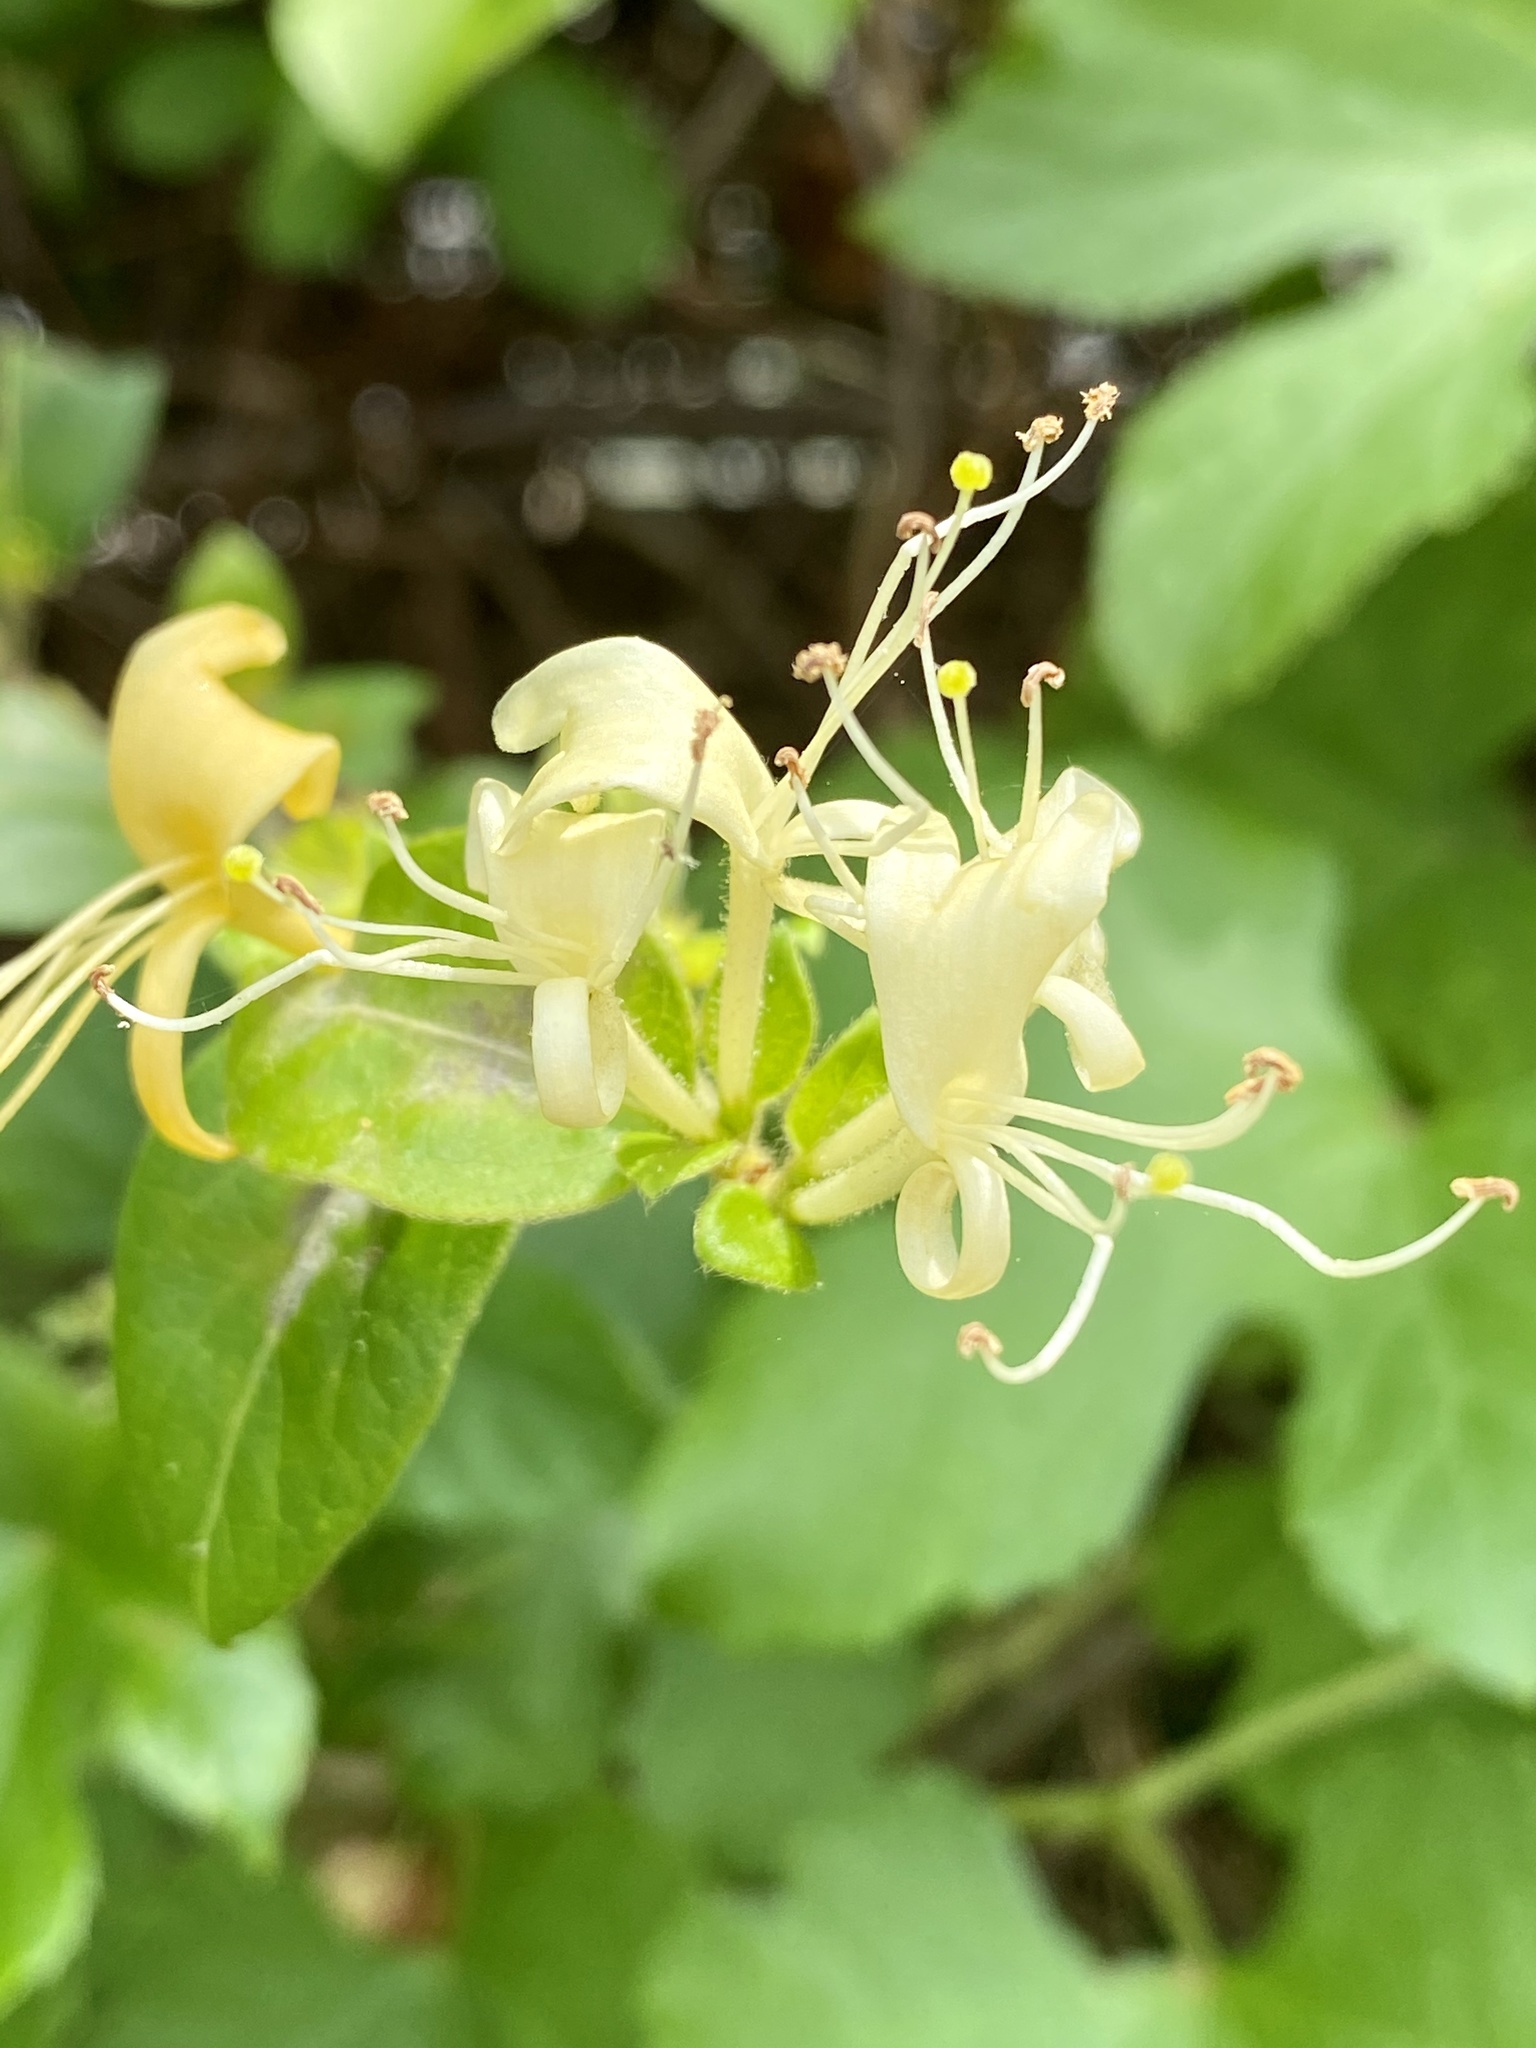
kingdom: Plantae
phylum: Tracheophyta
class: Magnoliopsida
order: Dipsacales
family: Caprifoliaceae
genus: Lonicera
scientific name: Lonicera japonica
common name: Japanese honeysuckle
